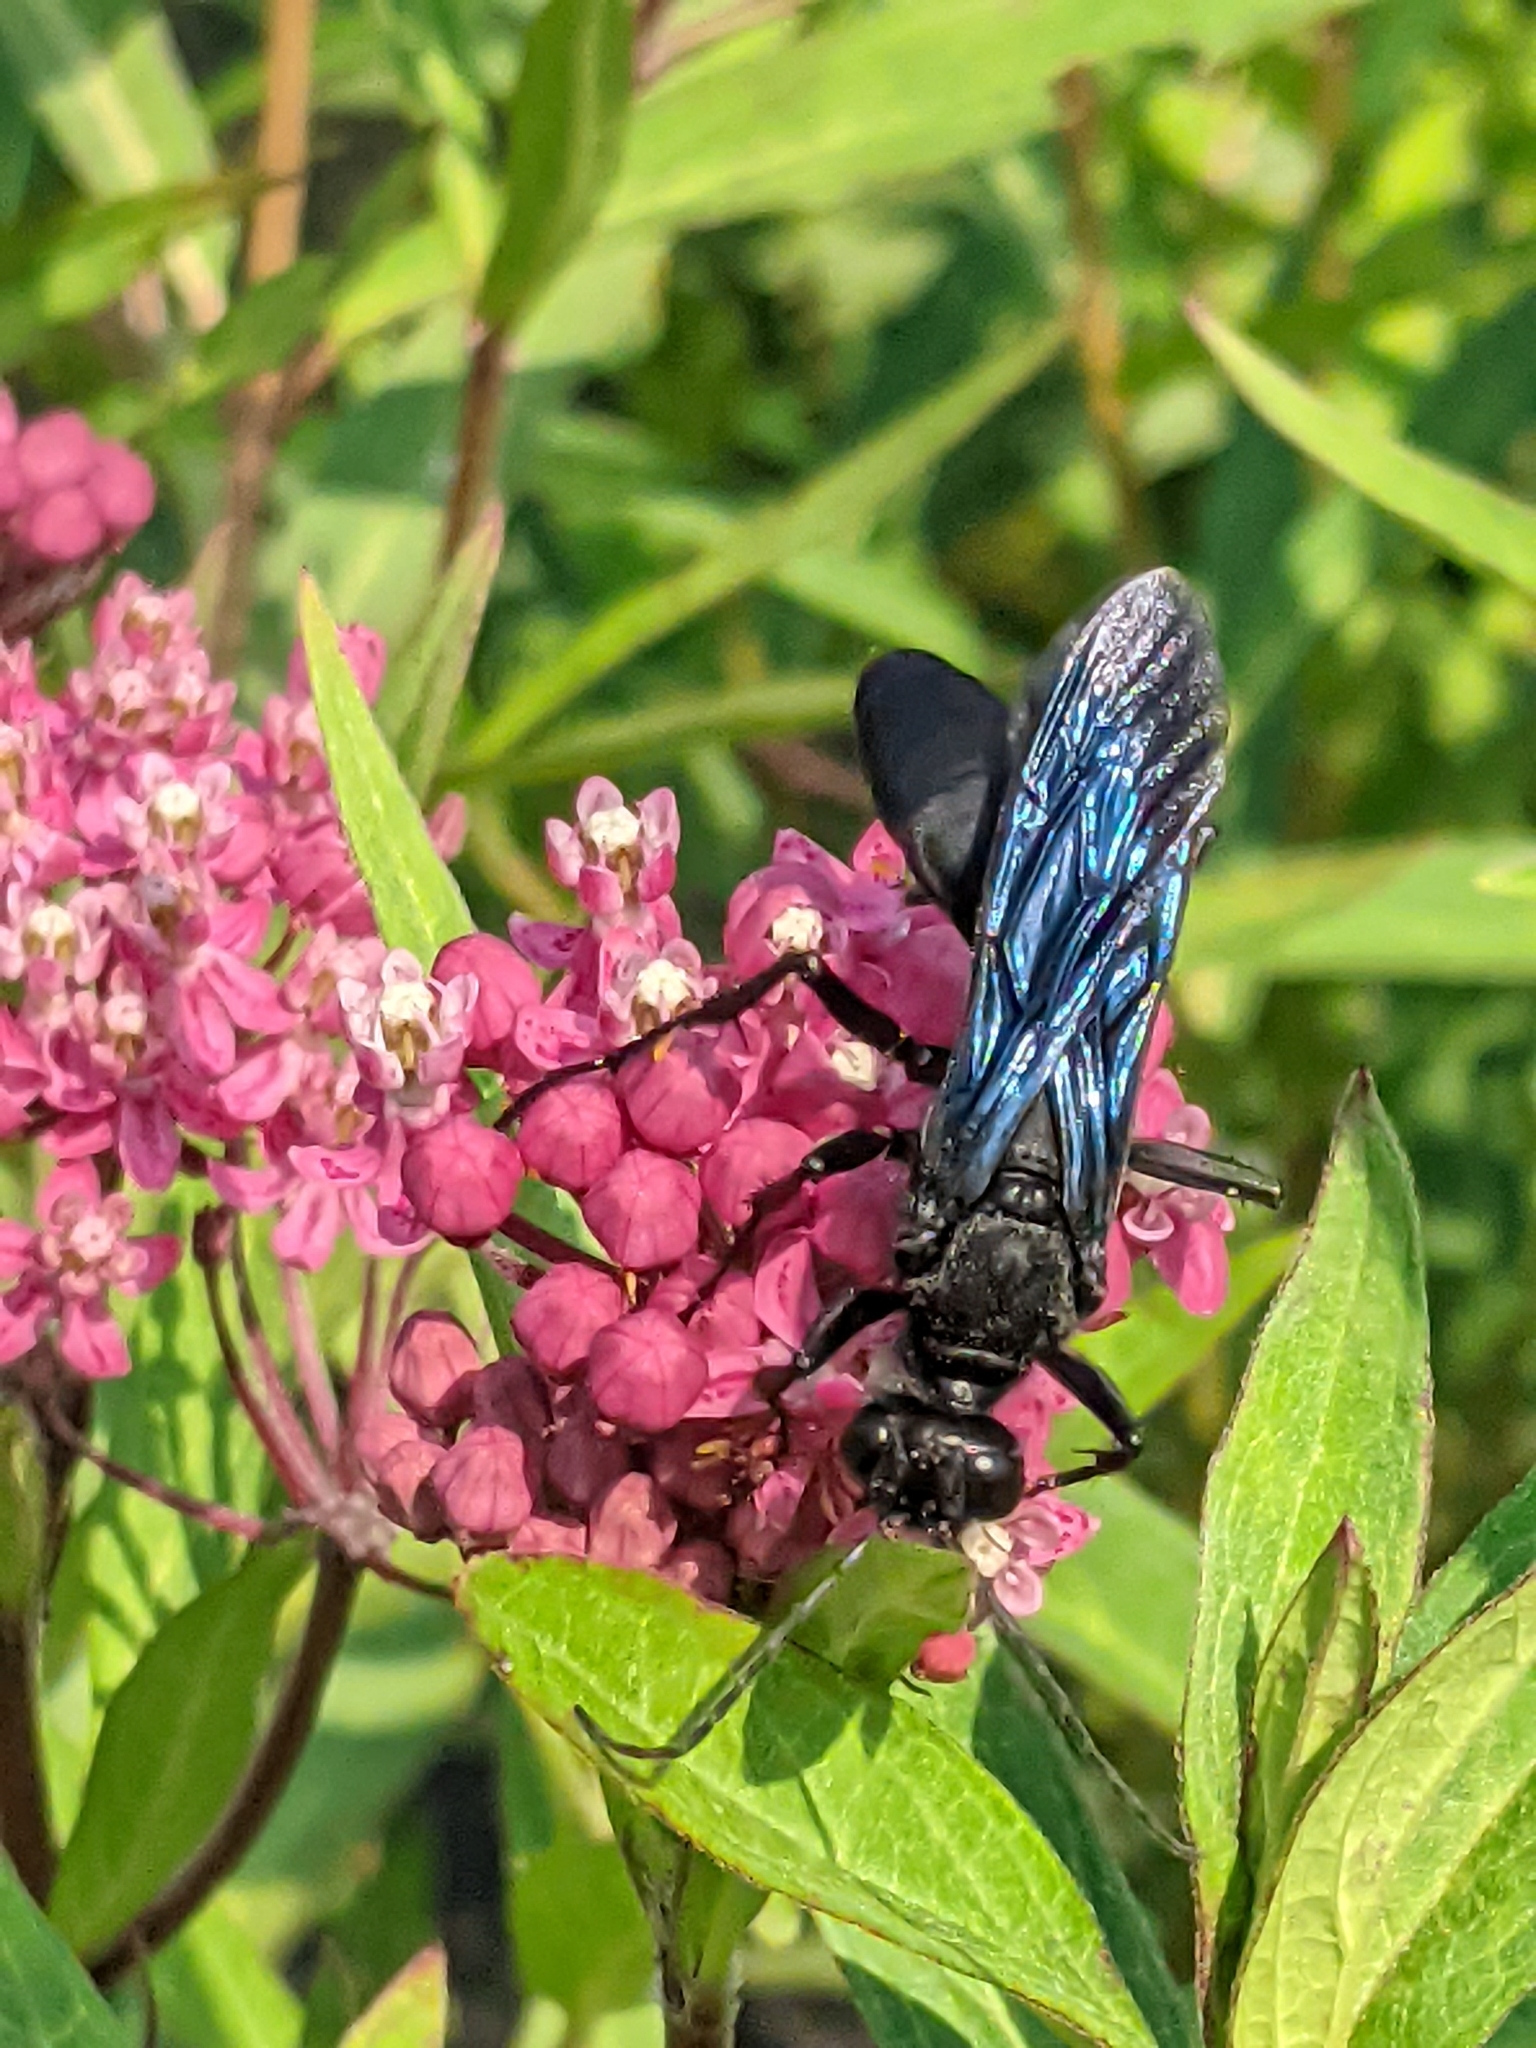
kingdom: Animalia
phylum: Arthropoda
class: Insecta
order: Hymenoptera
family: Sphecidae
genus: Sphex
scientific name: Sphex pensylvanicus
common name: Great black digger wasp
